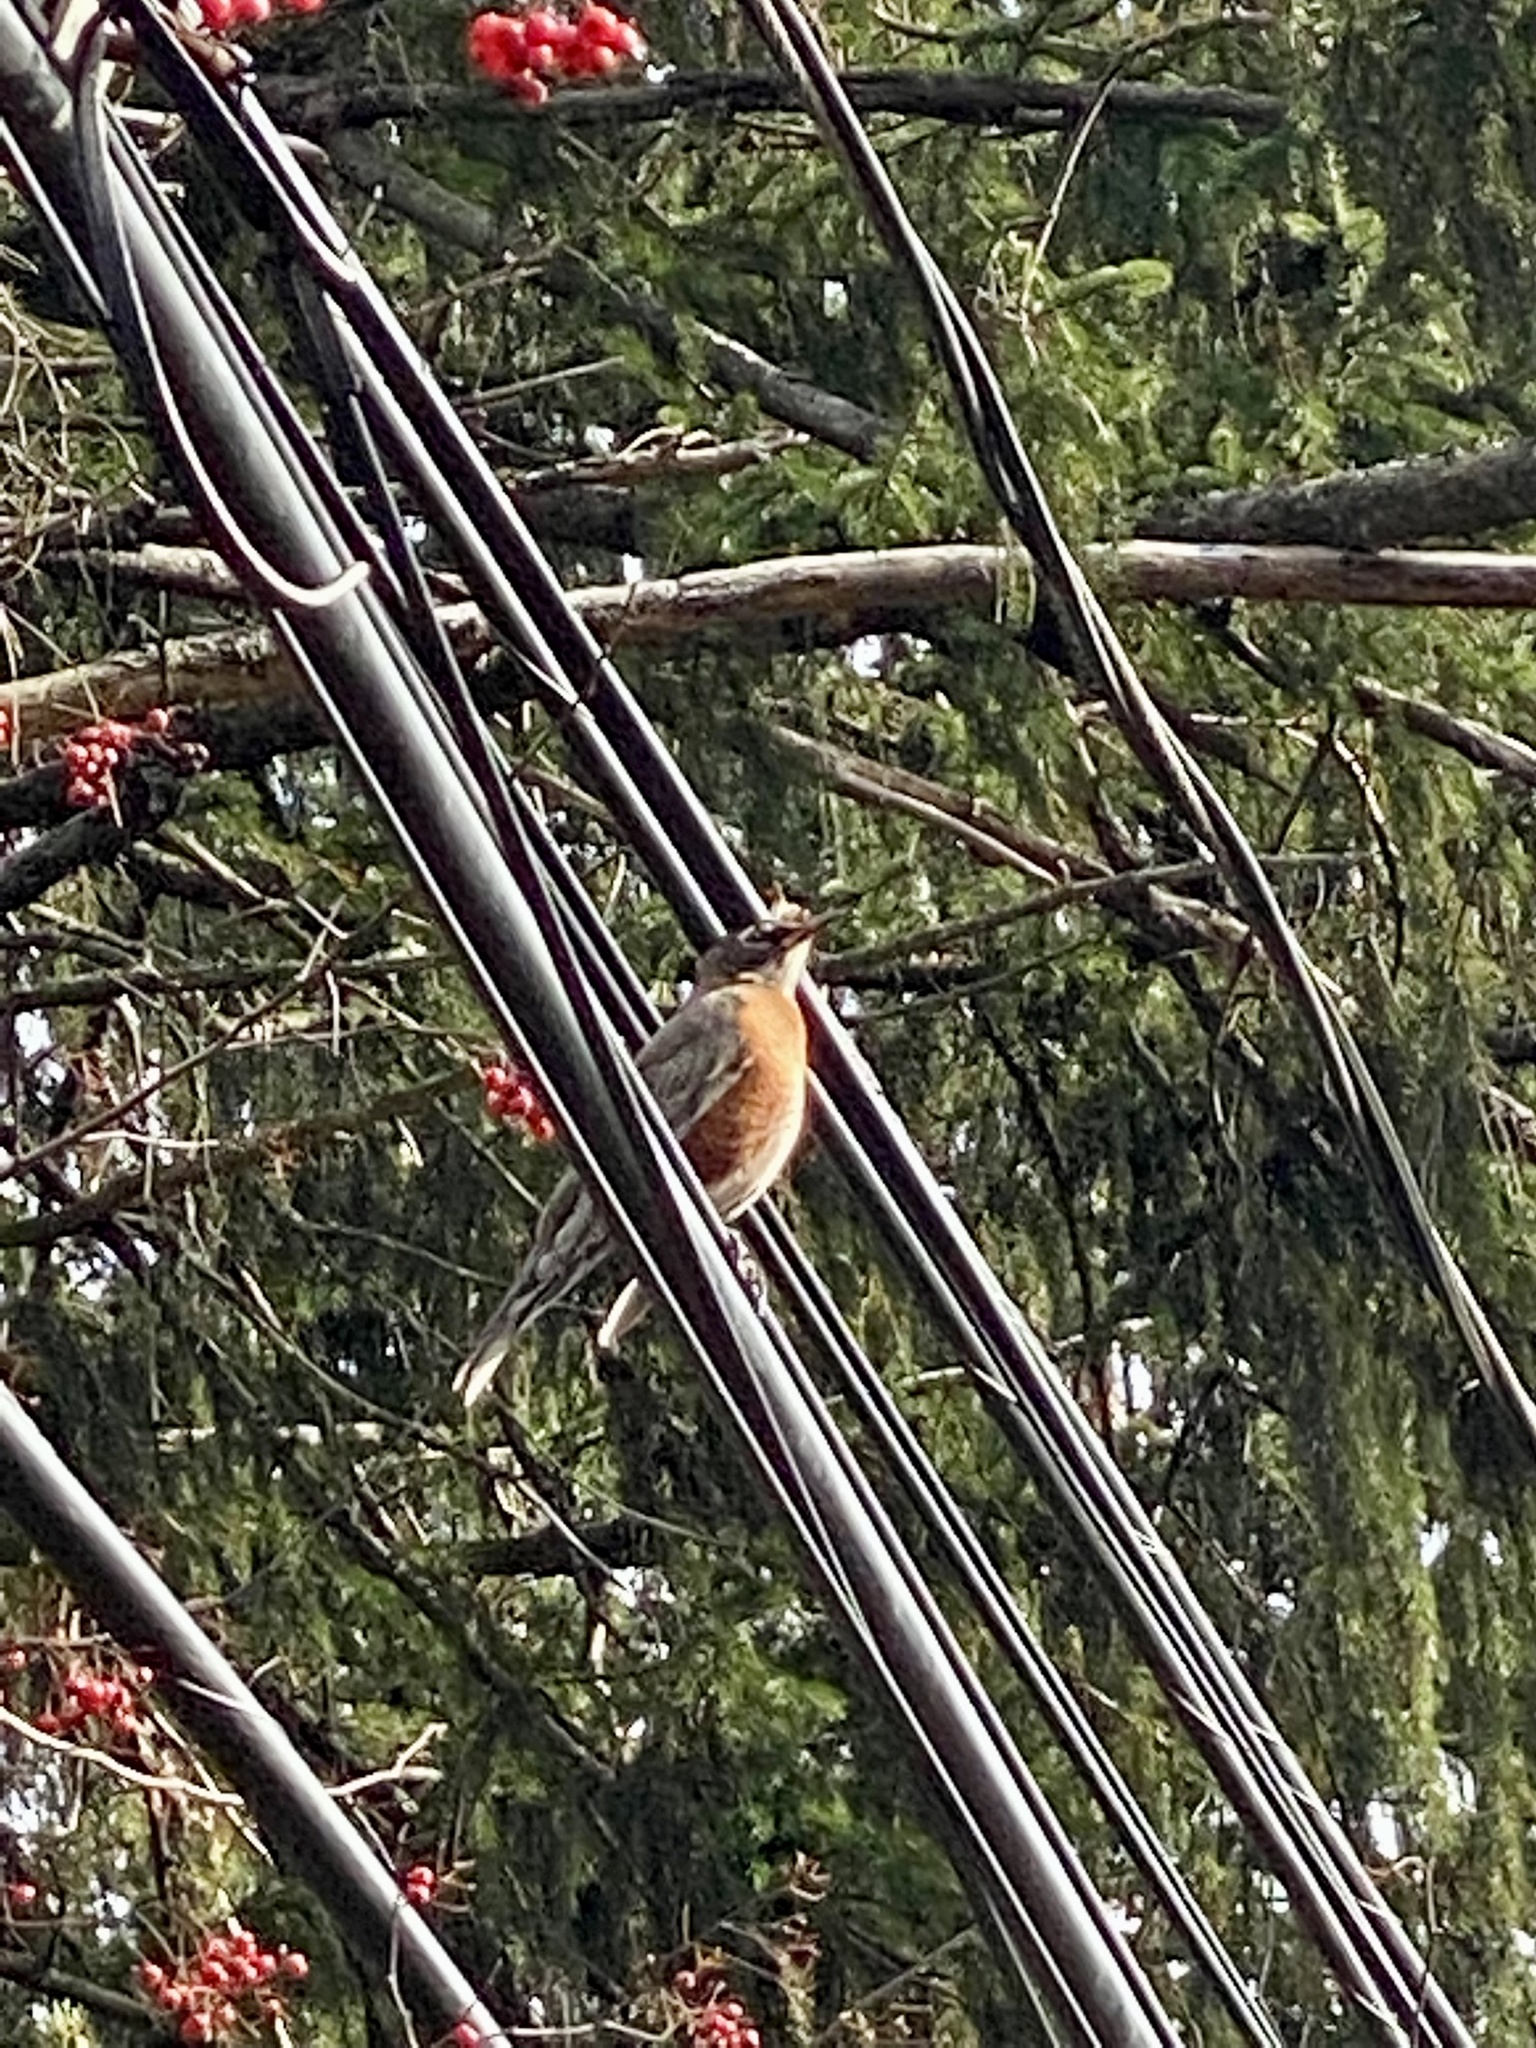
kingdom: Animalia
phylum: Chordata
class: Aves
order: Passeriformes
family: Turdidae
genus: Turdus
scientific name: Turdus migratorius
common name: American robin
